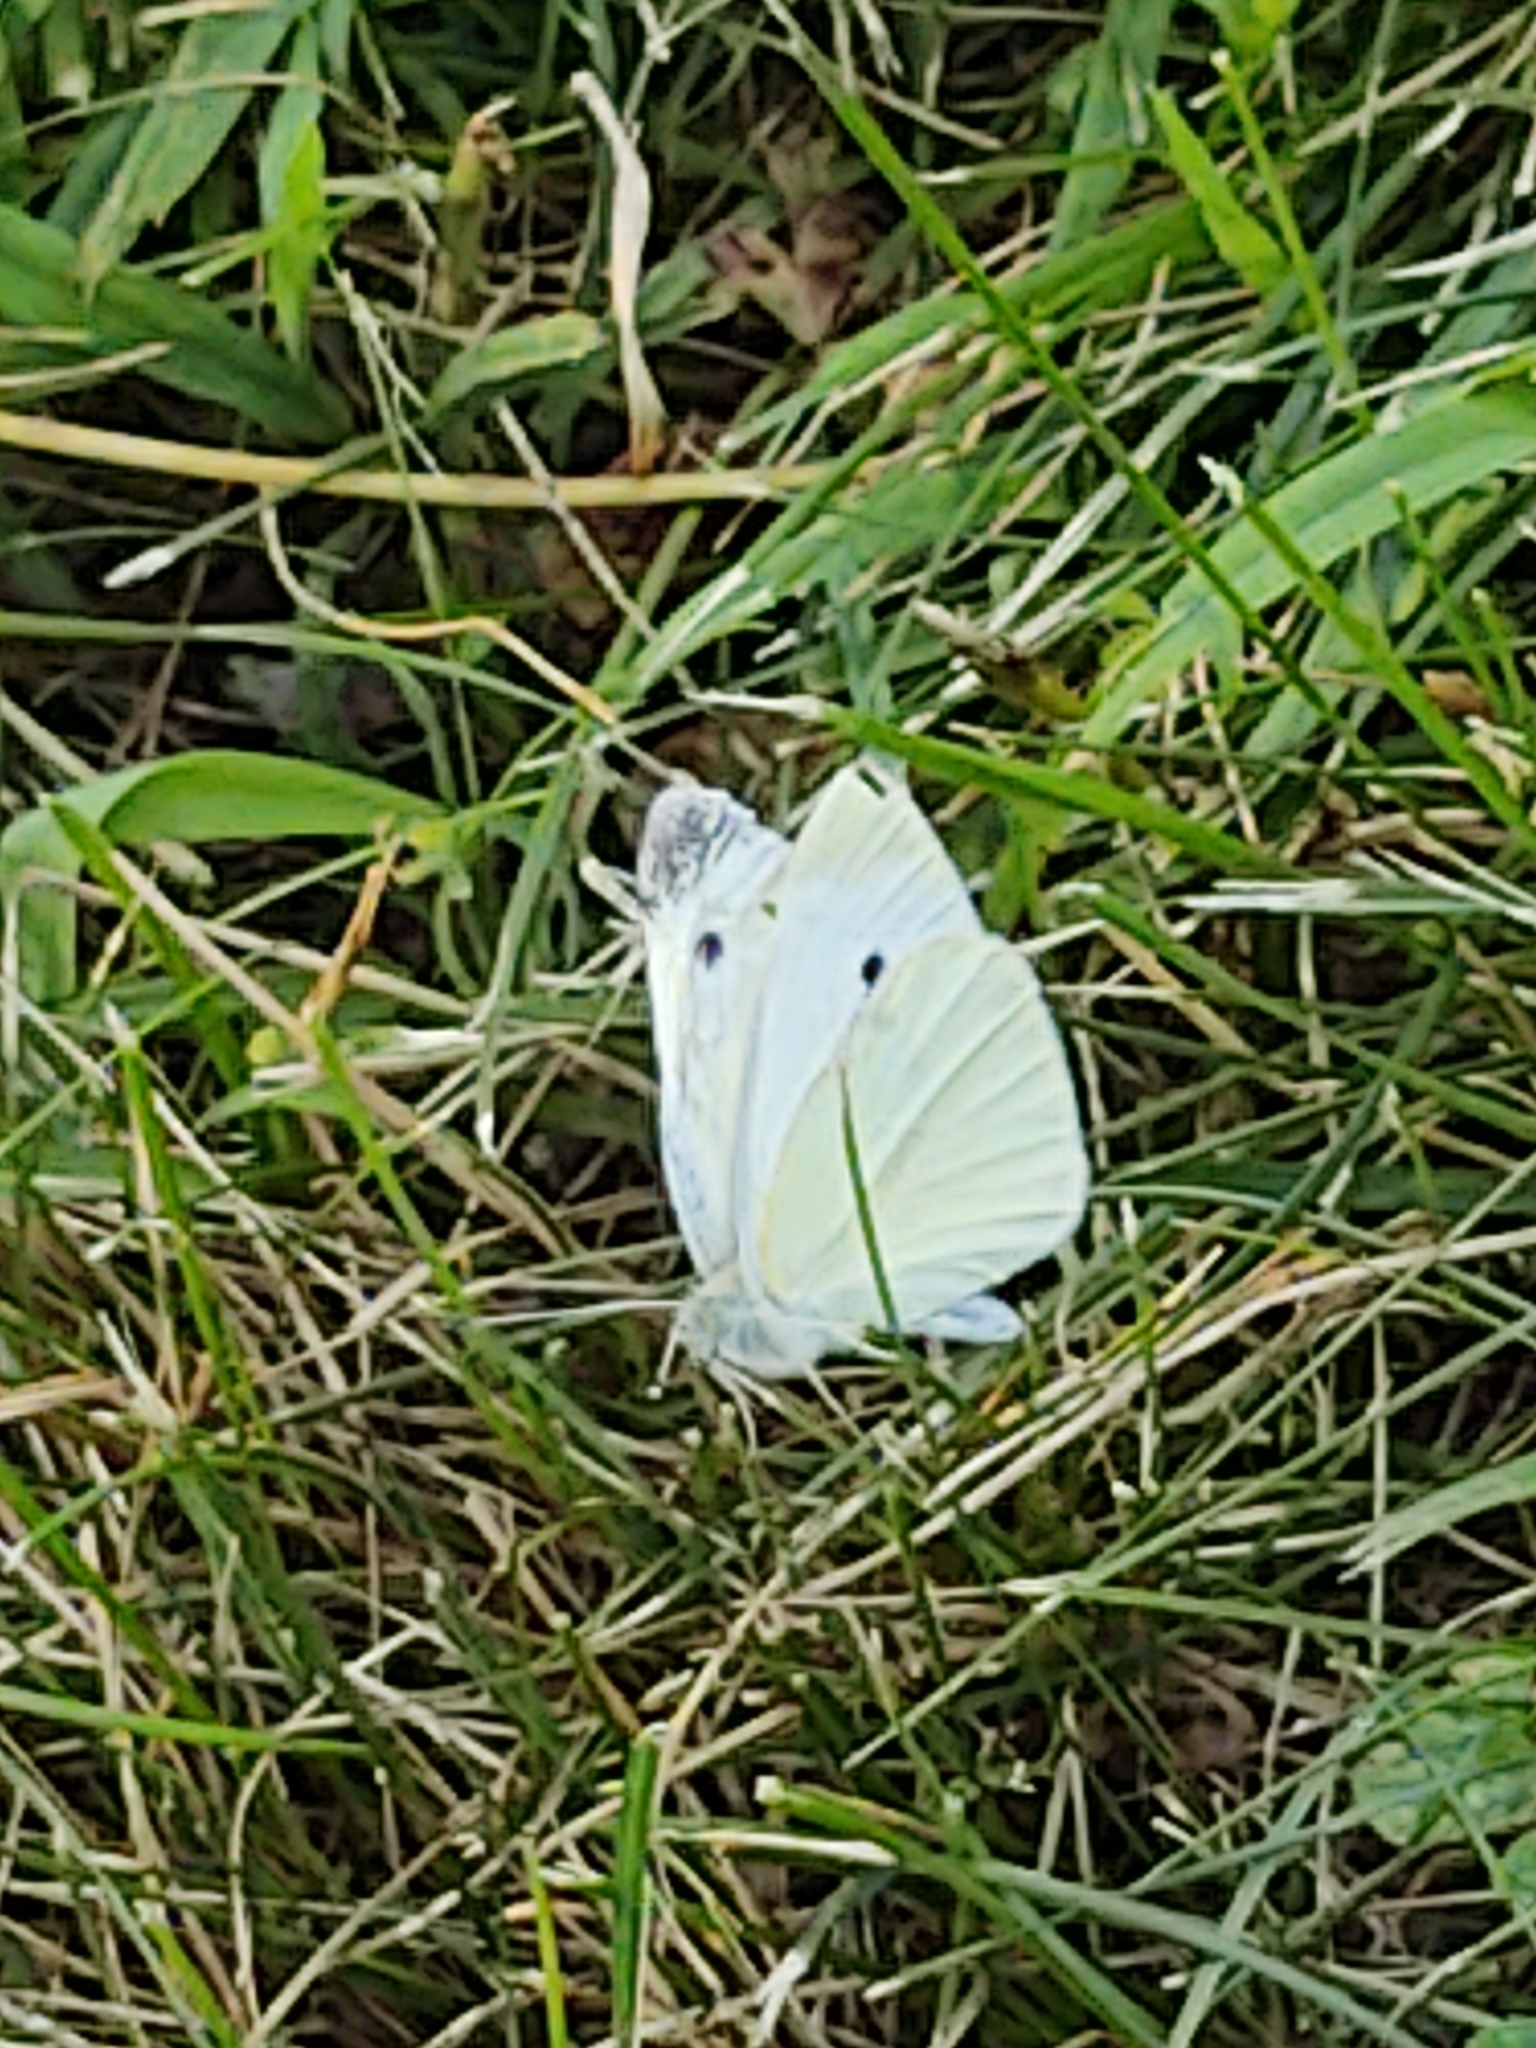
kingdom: Animalia
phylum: Arthropoda
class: Insecta
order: Lepidoptera
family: Pieridae
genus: Pieris
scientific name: Pieris rapae
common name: Small white
